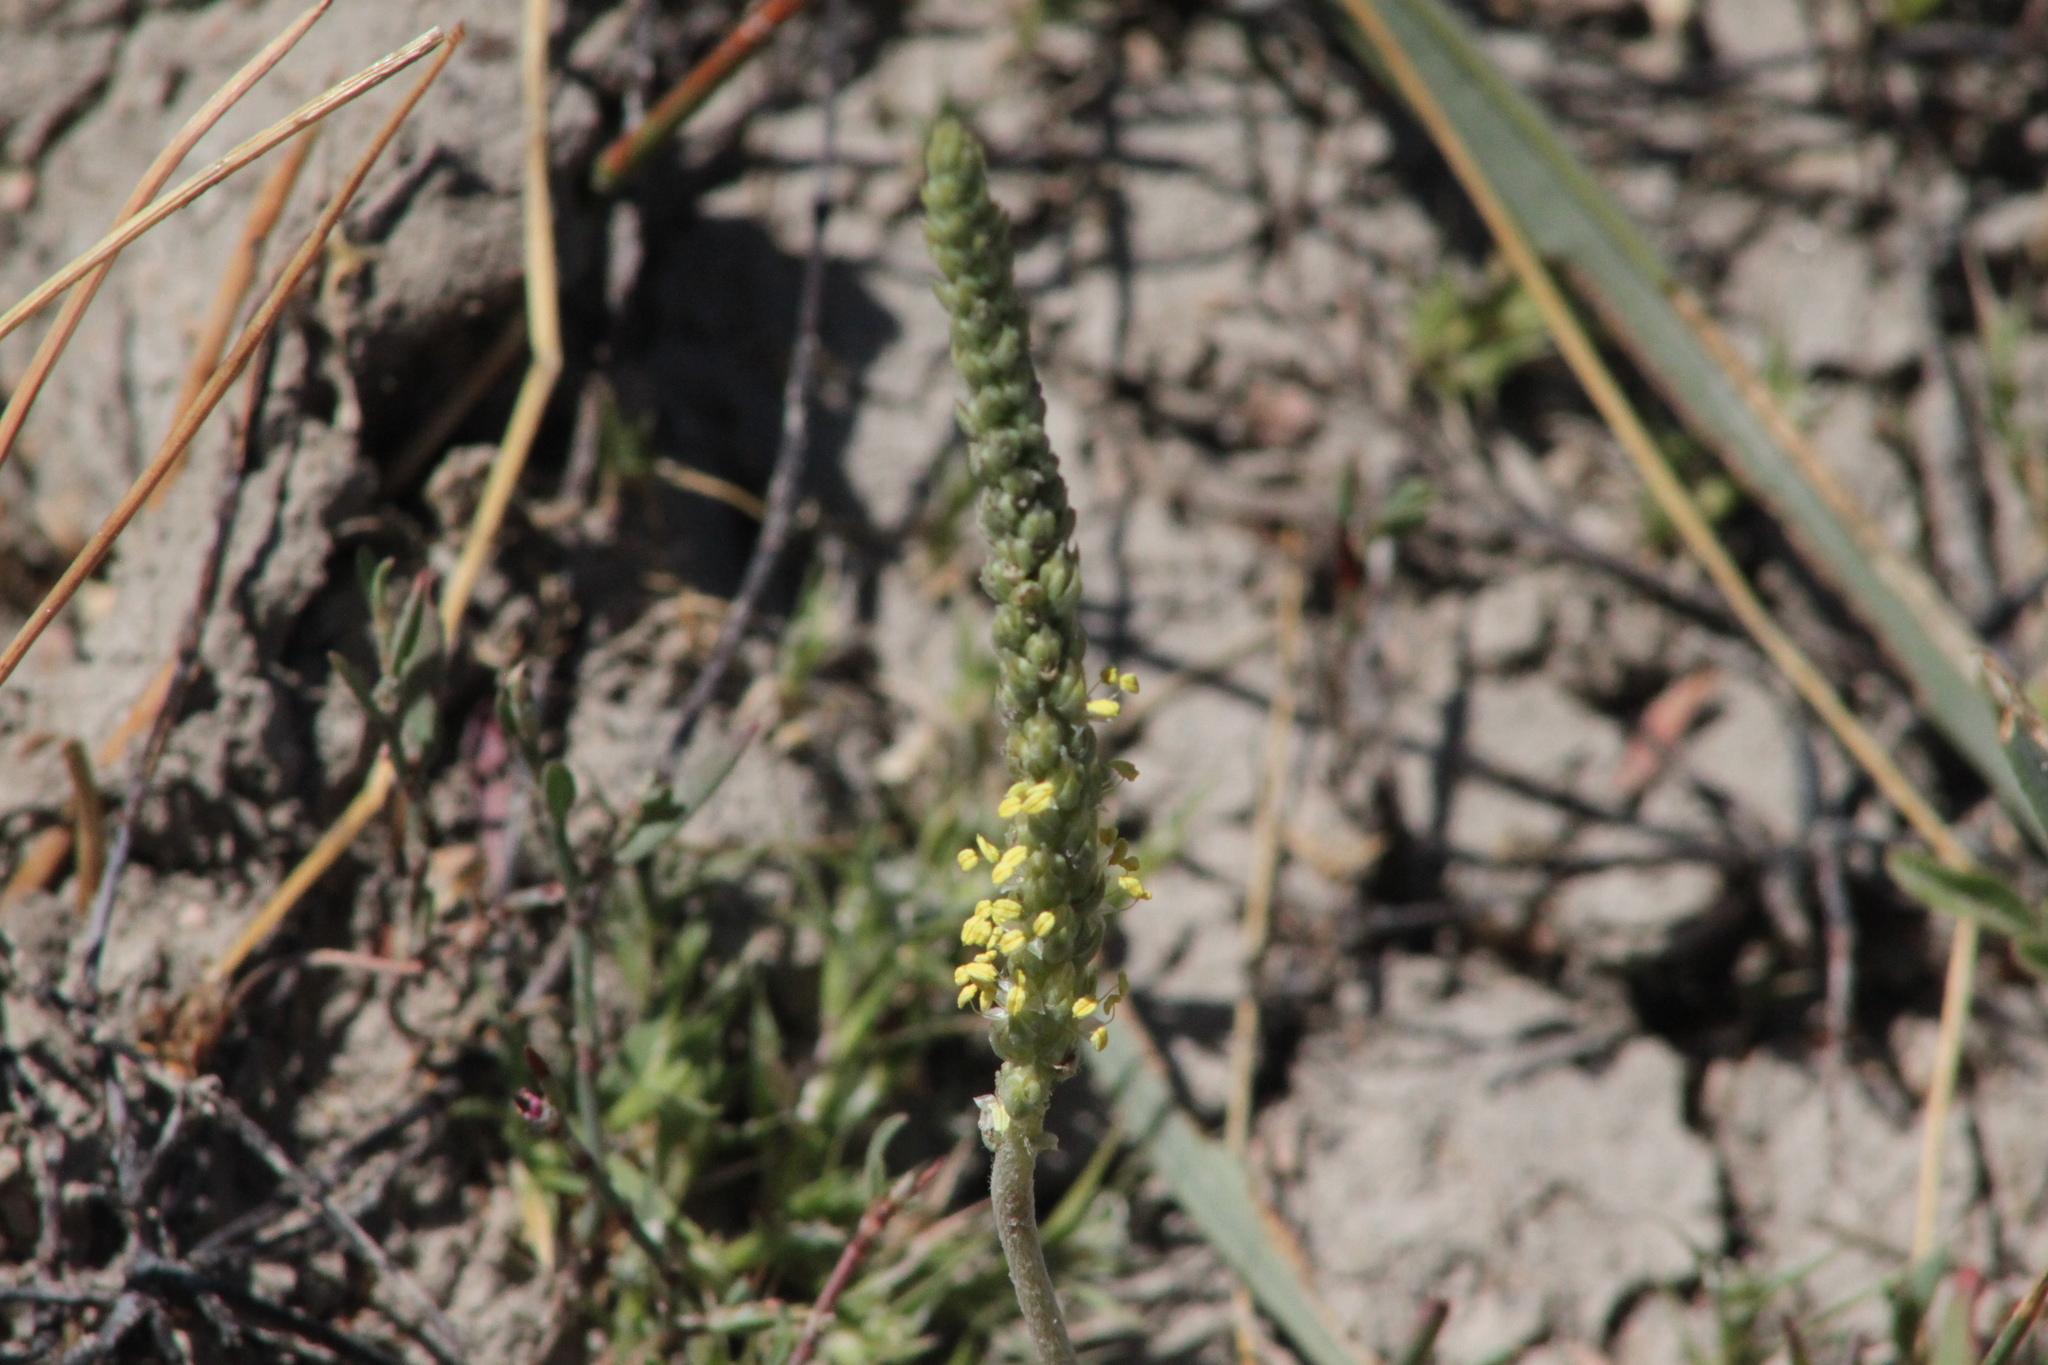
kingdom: Plantae
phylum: Tracheophyta
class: Magnoliopsida
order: Lamiales
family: Plantaginaceae
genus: Plantago
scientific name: Plantago salsa
